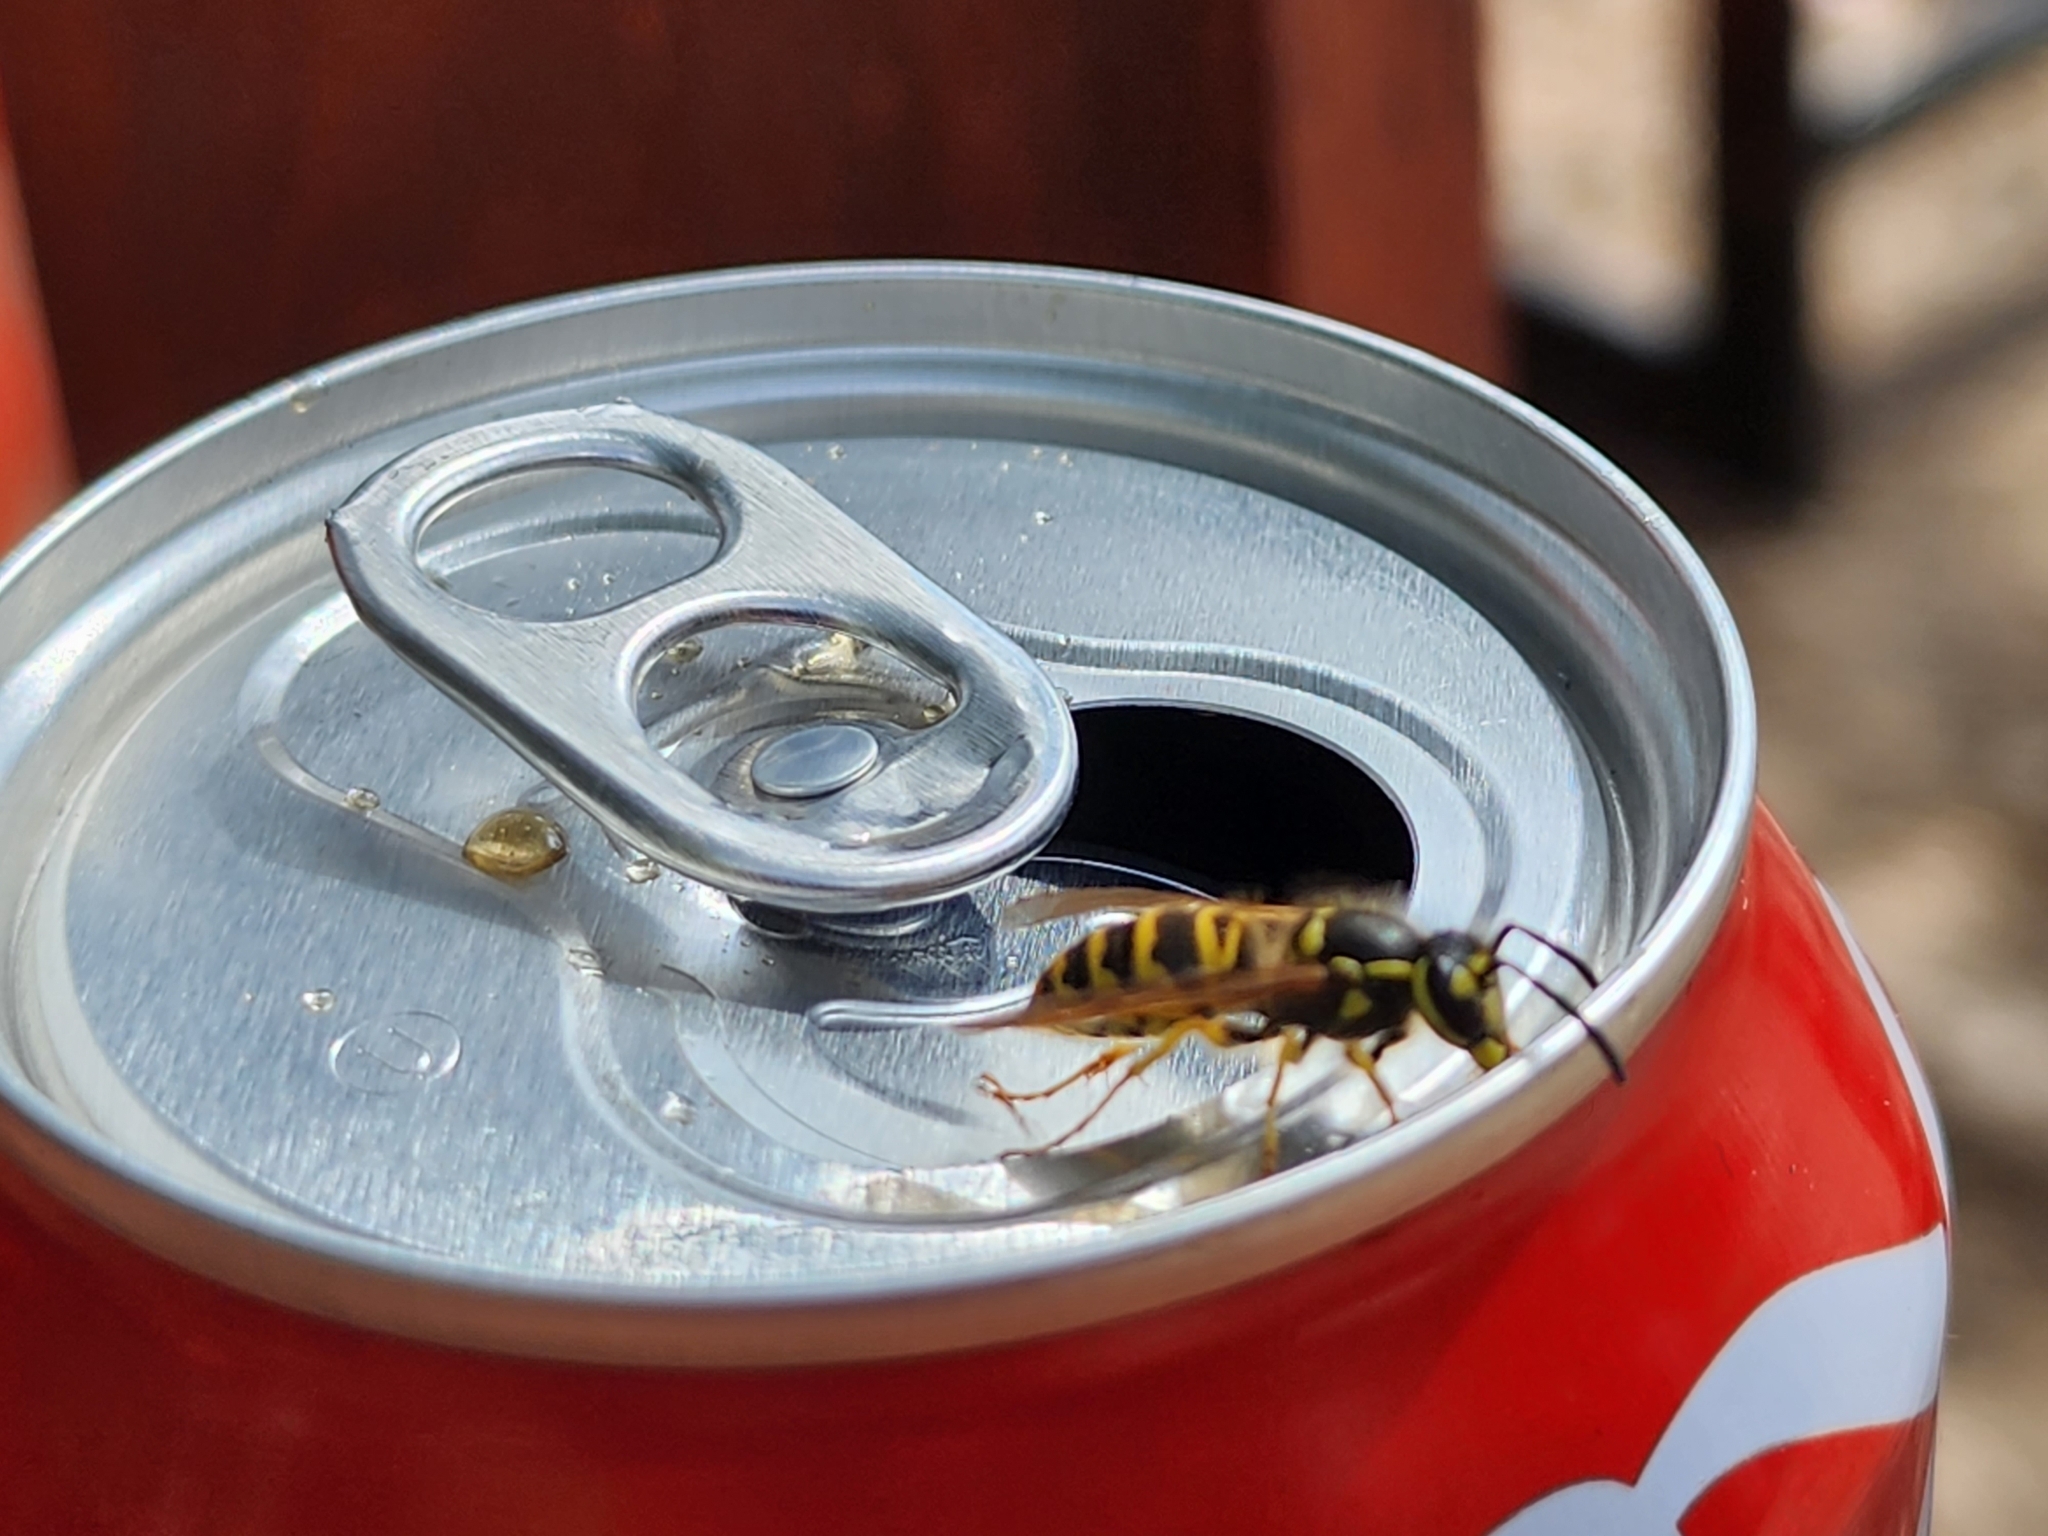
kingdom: Animalia
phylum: Arthropoda
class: Insecta
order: Hymenoptera
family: Vespidae
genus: Vespula
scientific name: Vespula maculifrons
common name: Eastern yellowjacket
